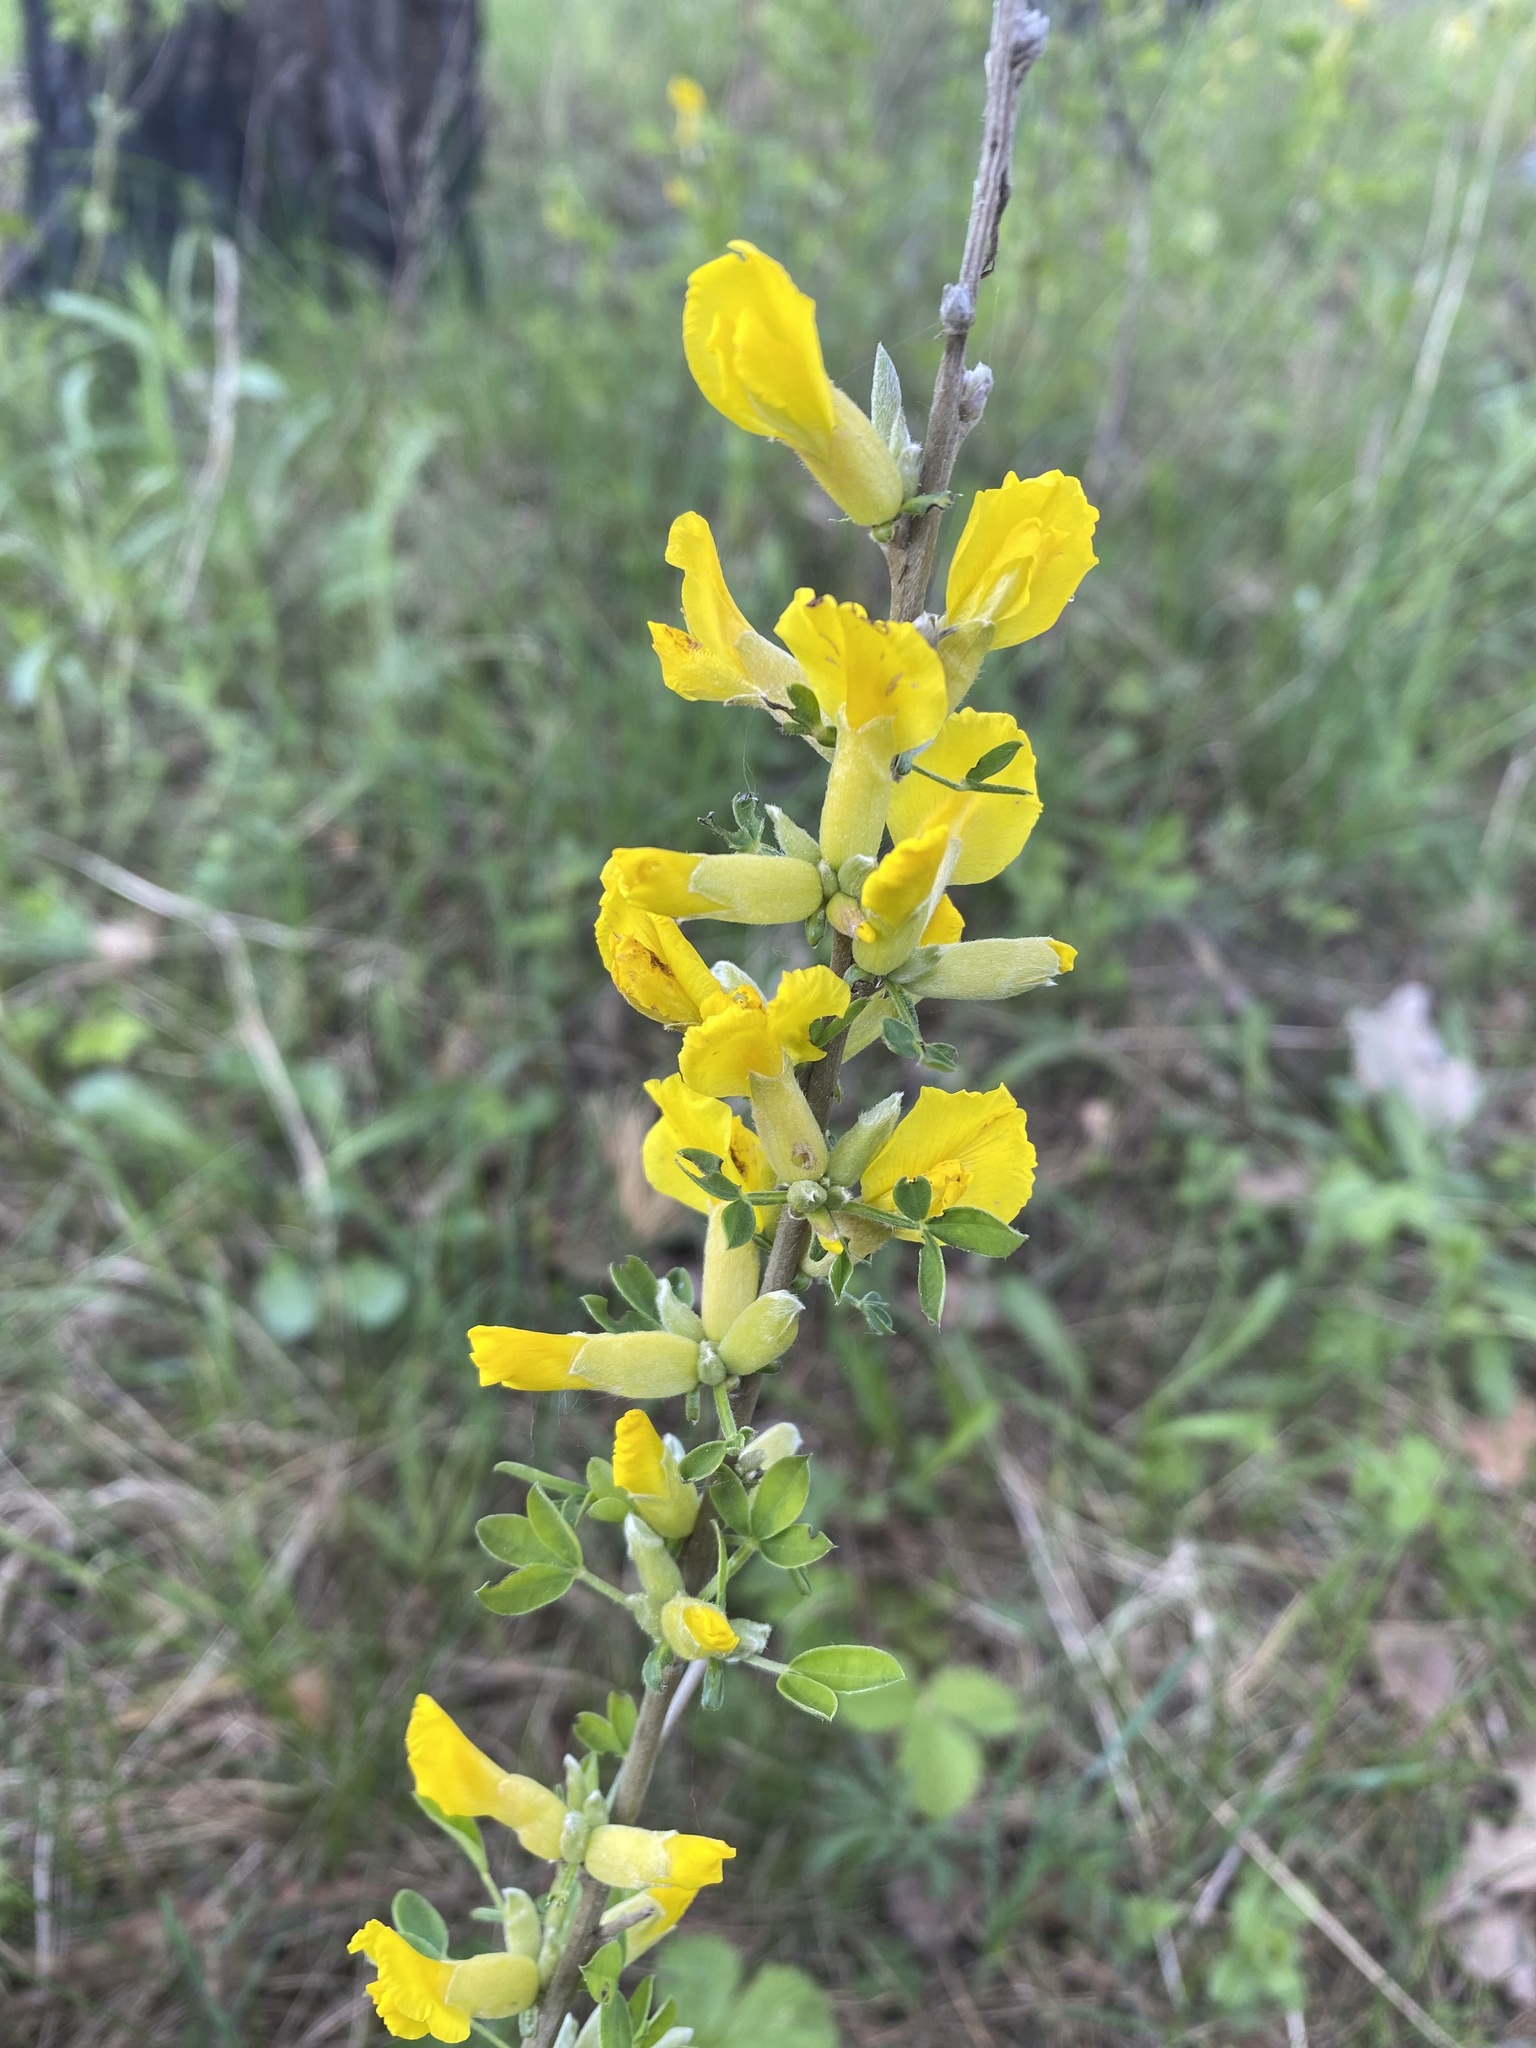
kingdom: Plantae
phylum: Tracheophyta
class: Magnoliopsida
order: Fabales
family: Fabaceae
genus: Chamaecytisus
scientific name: Chamaecytisus ruthenicus
